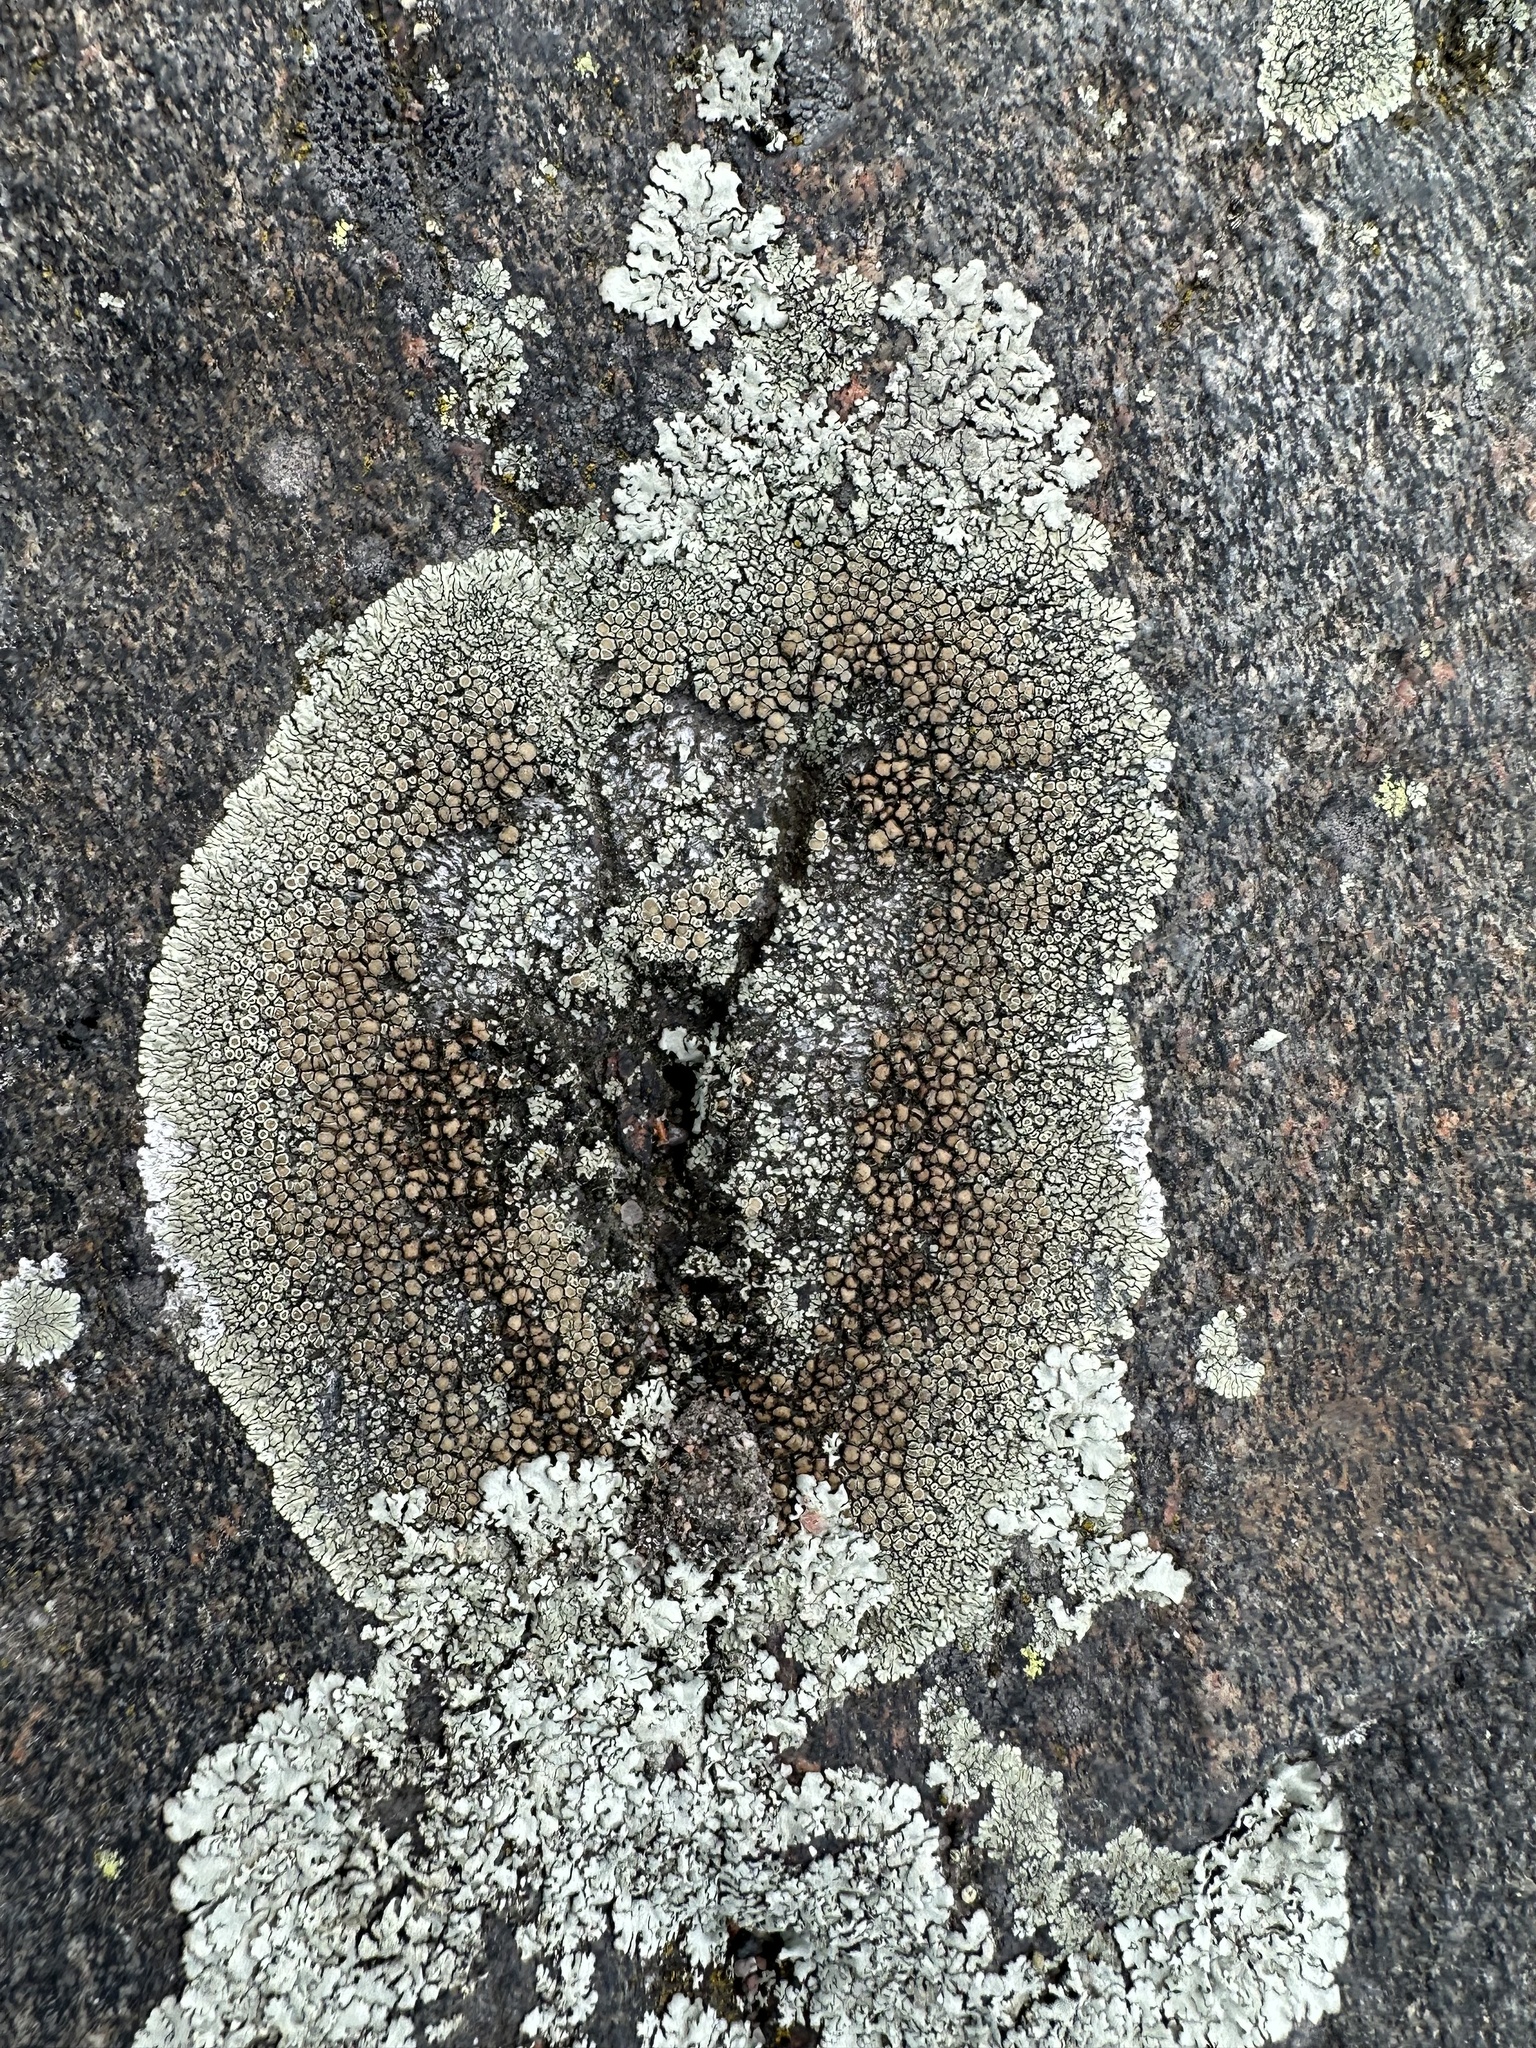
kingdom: Fungi
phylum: Ascomycota
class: Lecanoromycetes
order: Lecanorales
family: Lecanoraceae
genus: Protoparmeliopsis
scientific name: Protoparmeliopsis muralis
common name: Stonewall rim lichen
